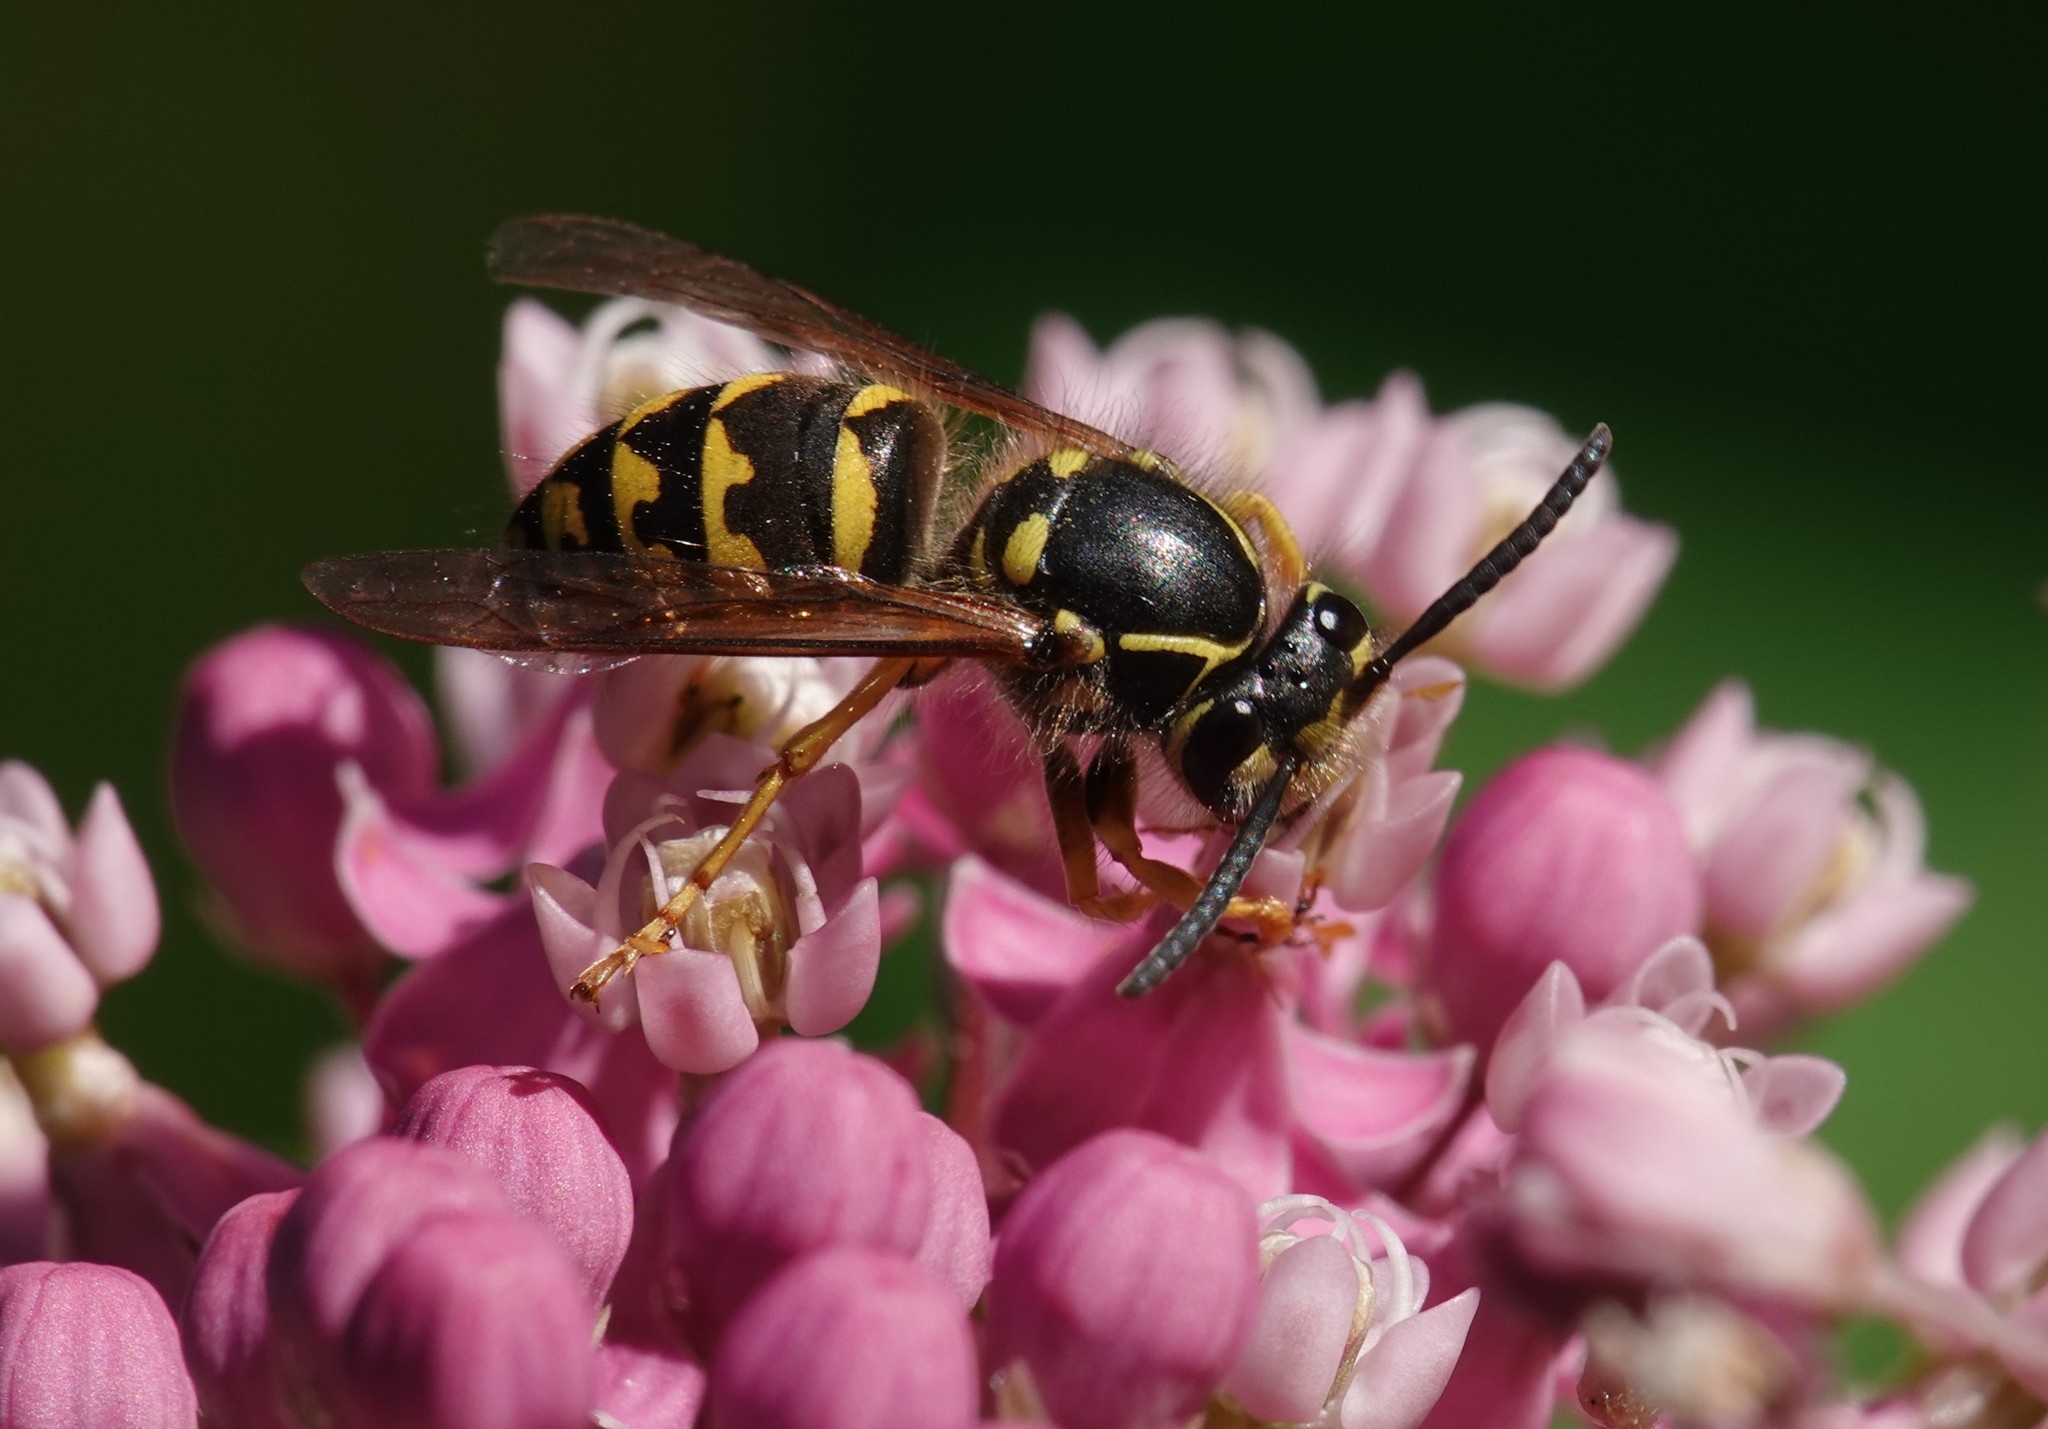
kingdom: Animalia
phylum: Arthropoda
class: Insecta
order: Hymenoptera
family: Vespidae
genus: Dolichovespula
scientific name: Dolichovespula arenaria
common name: Aerial yellowjacket
